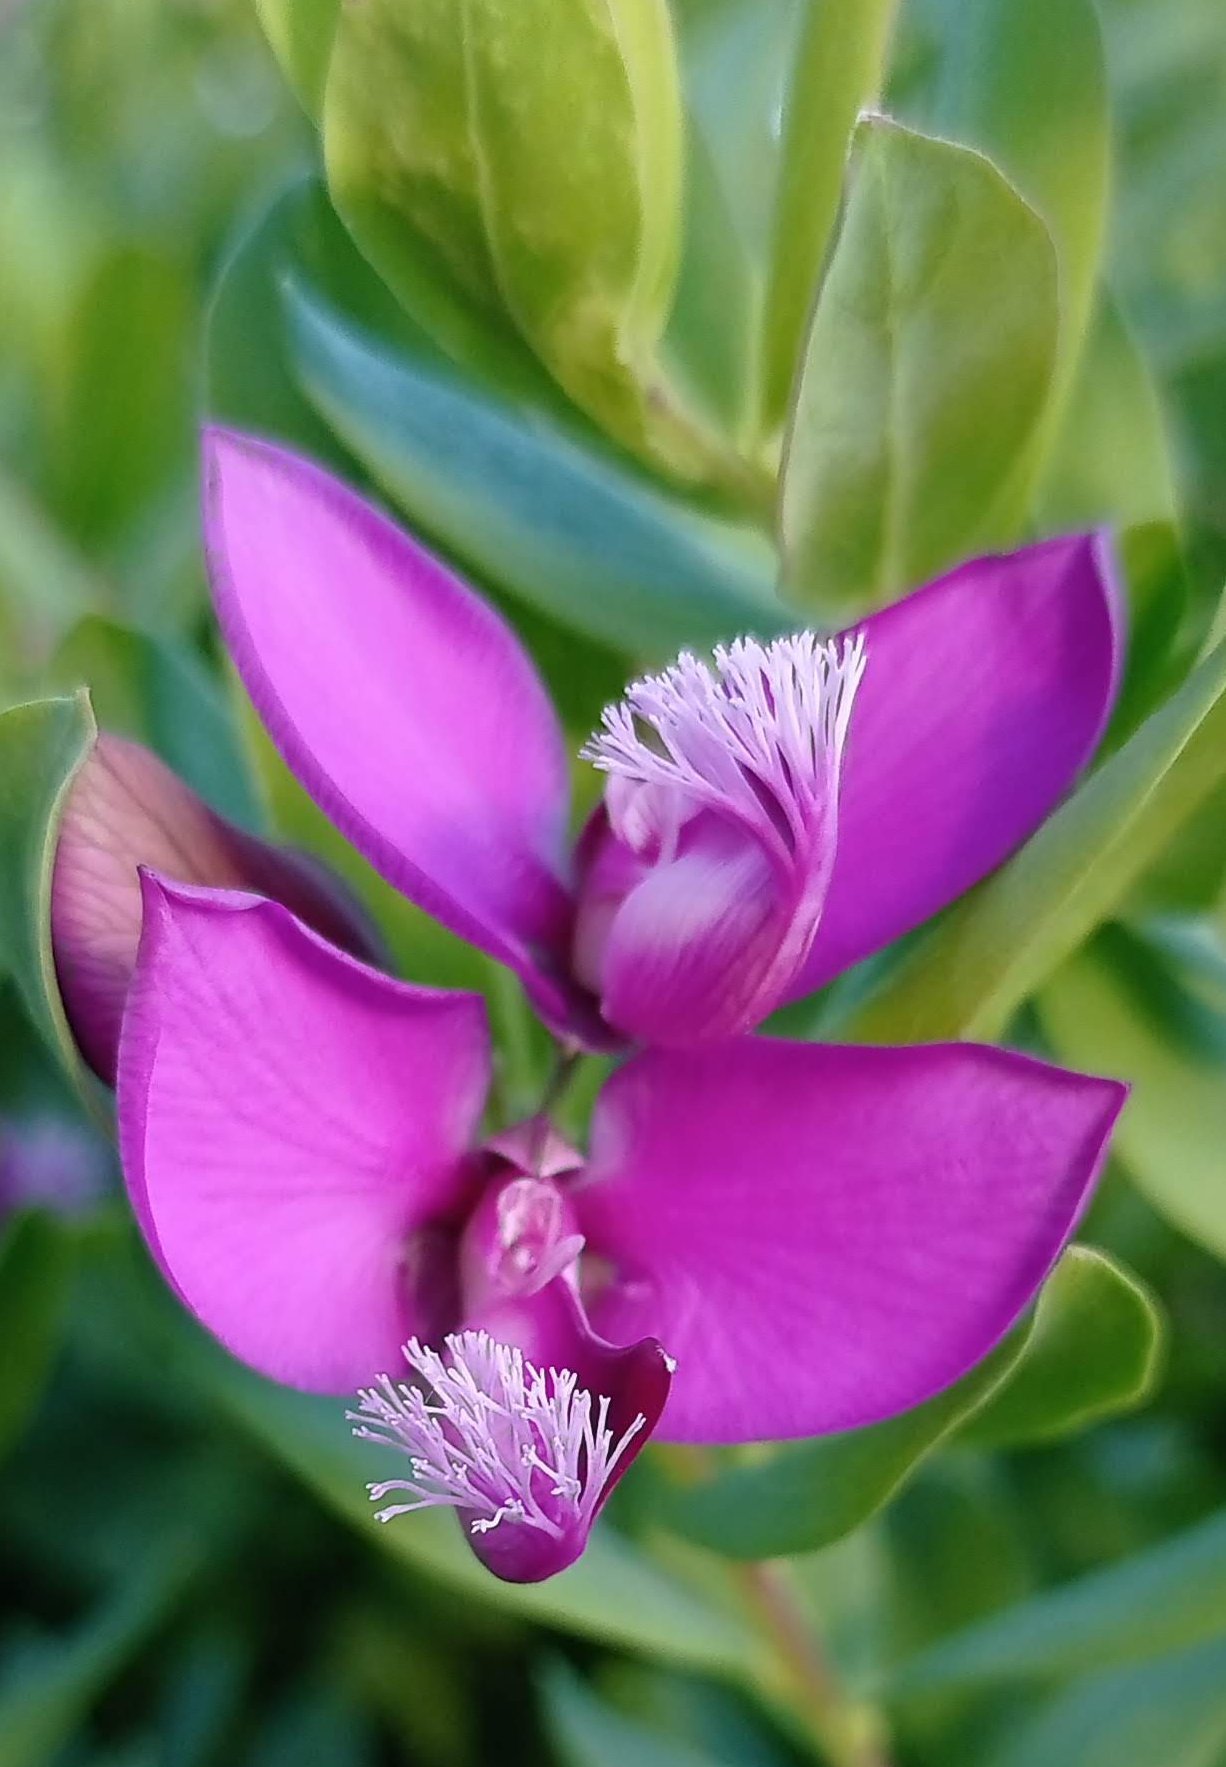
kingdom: Plantae
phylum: Tracheophyta
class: Magnoliopsida
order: Fabales
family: Polygalaceae
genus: Polygala
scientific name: Polygala myrtifolia
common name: Myrtle-leaf milkwort
